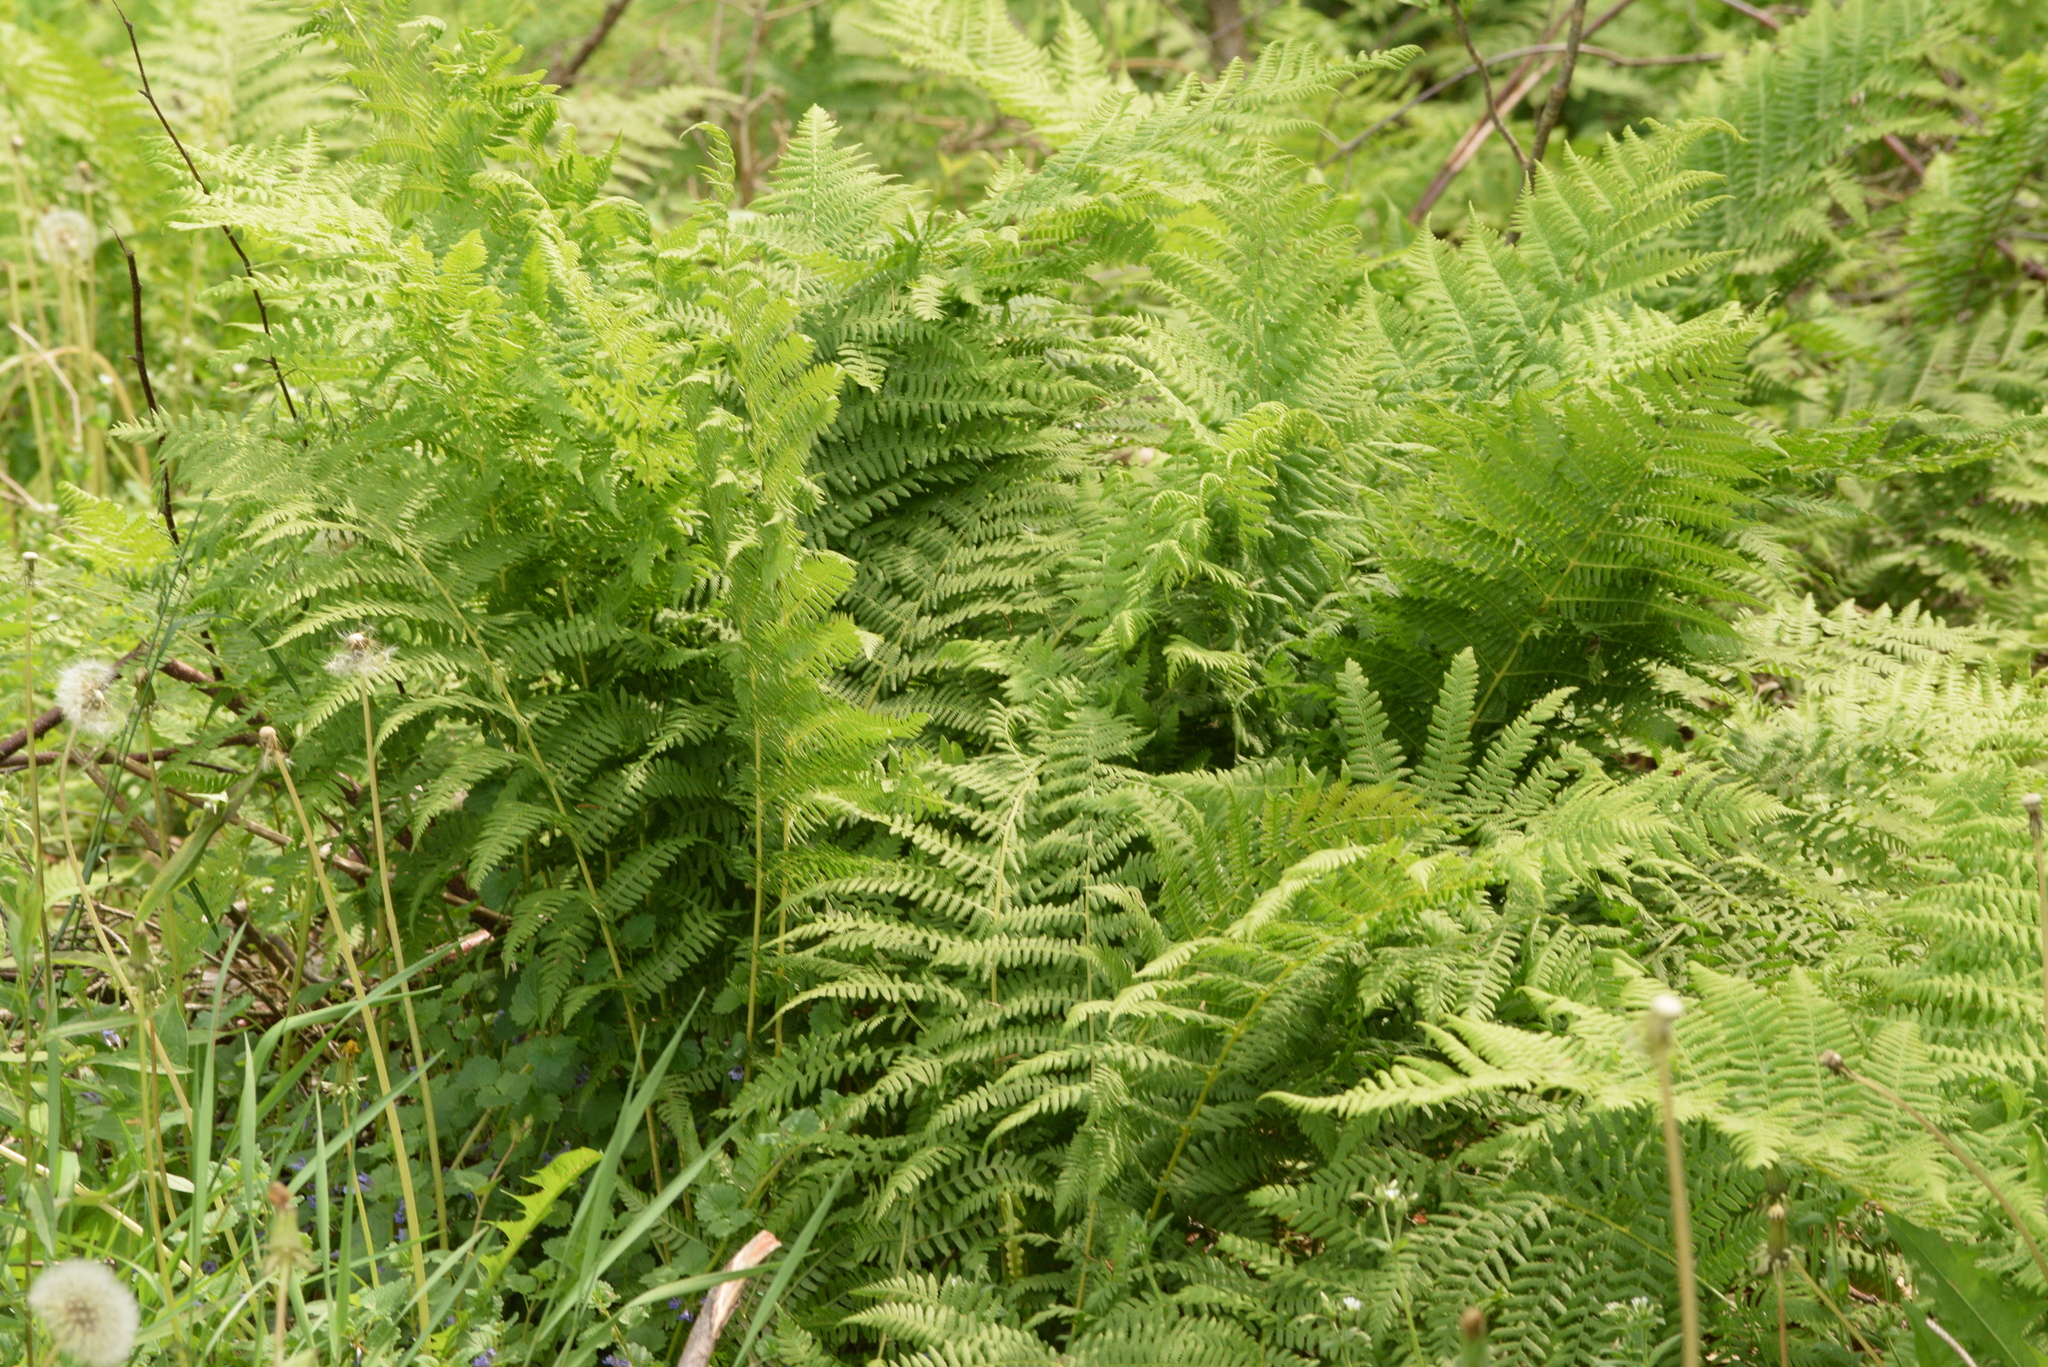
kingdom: Plantae
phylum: Tracheophyta
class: Polypodiopsida
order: Polypodiales
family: Athyriaceae
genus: Athyrium
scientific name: Athyrium angustum
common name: Northern lady fern
